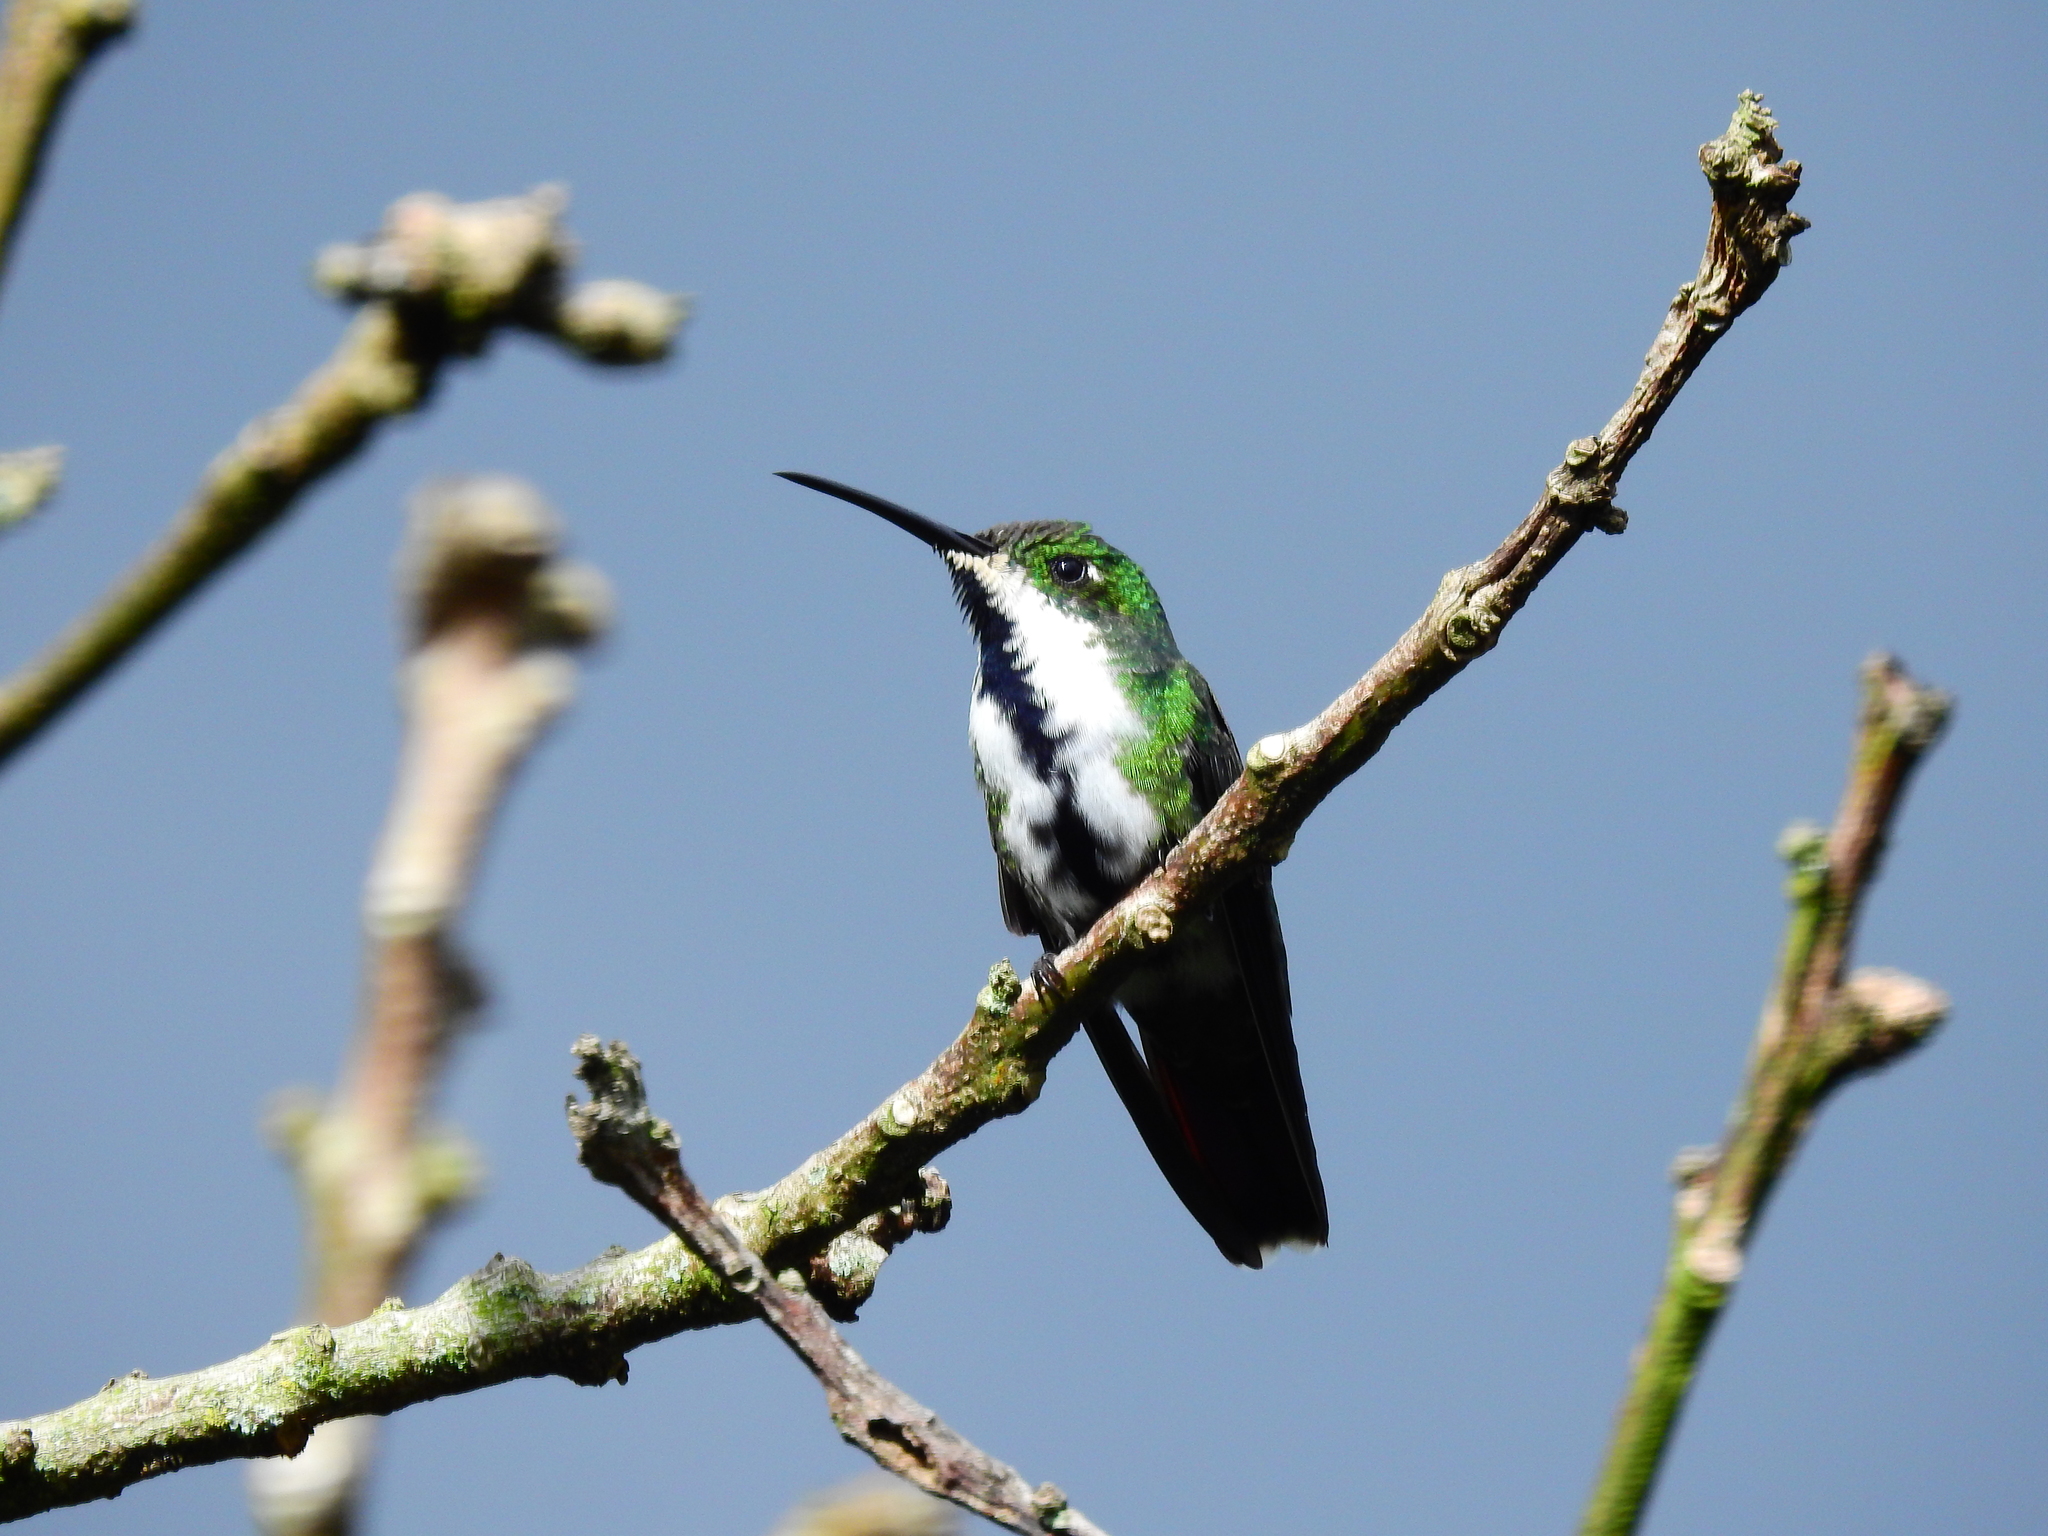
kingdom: Animalia
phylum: Chordata
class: Aves
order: Apodiformes
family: Trochilidae
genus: Anthracothorax
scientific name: Anthracothorax nigricollis
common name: Black-throated mango
